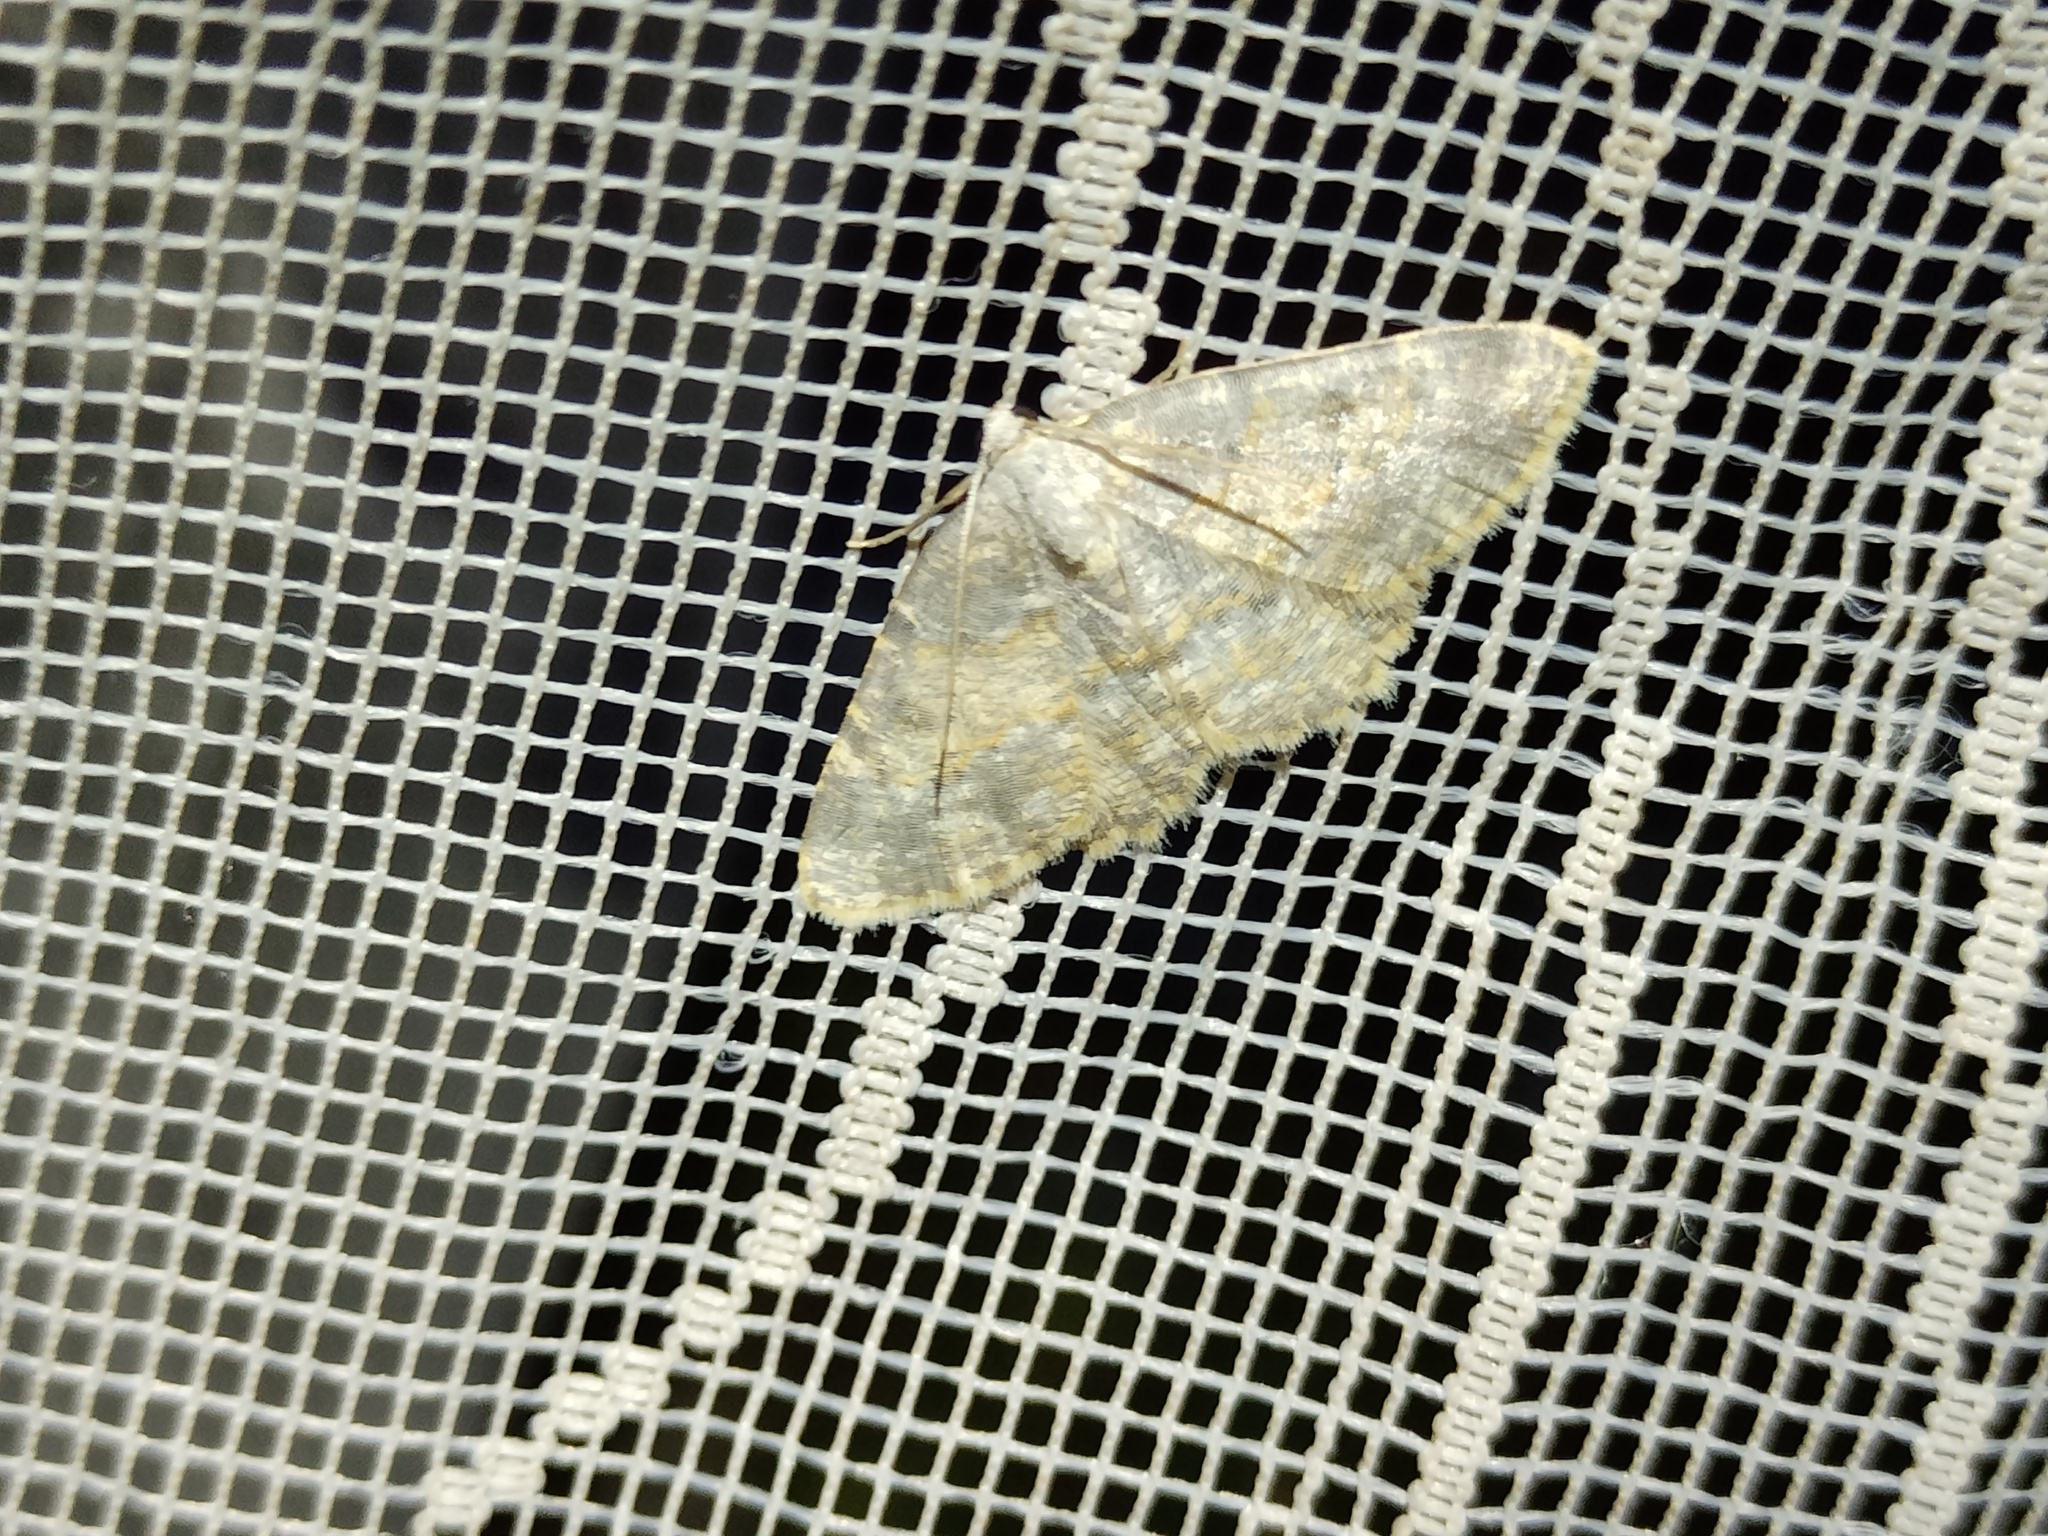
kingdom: Animalia
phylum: Arthropoda
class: Insecta
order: Lepidoptera
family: Geometridae
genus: Charissa
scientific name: Charissa variegata
